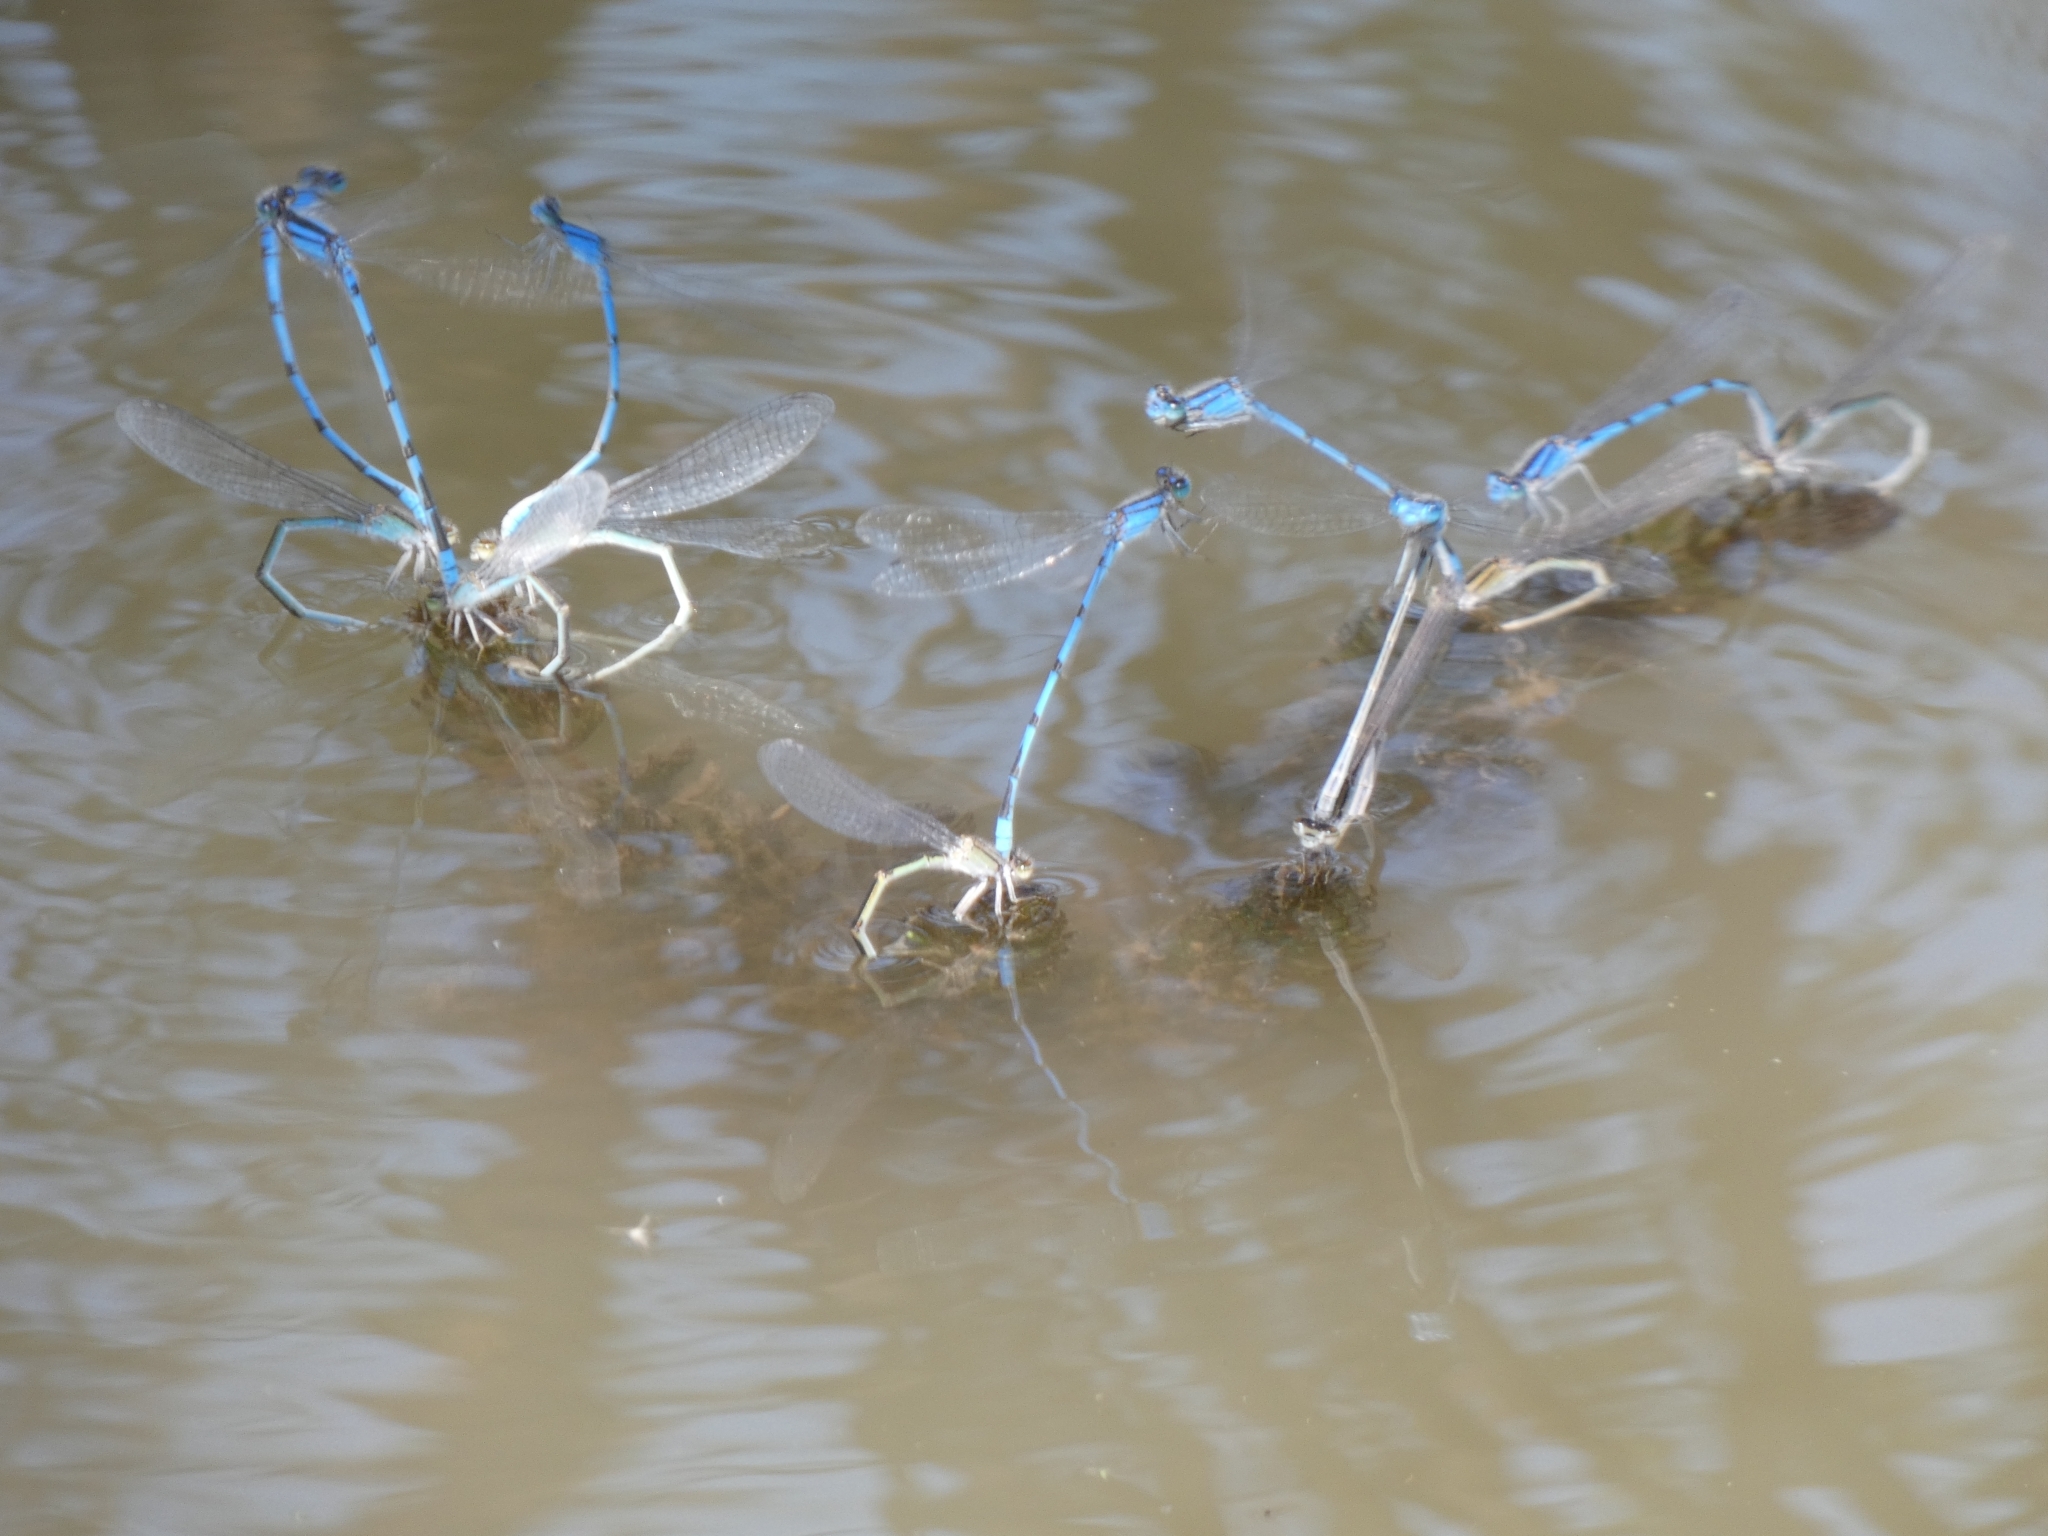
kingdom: Animalia
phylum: Arthropoda
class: Insecta
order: Odonata
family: Coenagrionidae
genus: Enallagma
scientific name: Enallagma civile
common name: Damselfly
